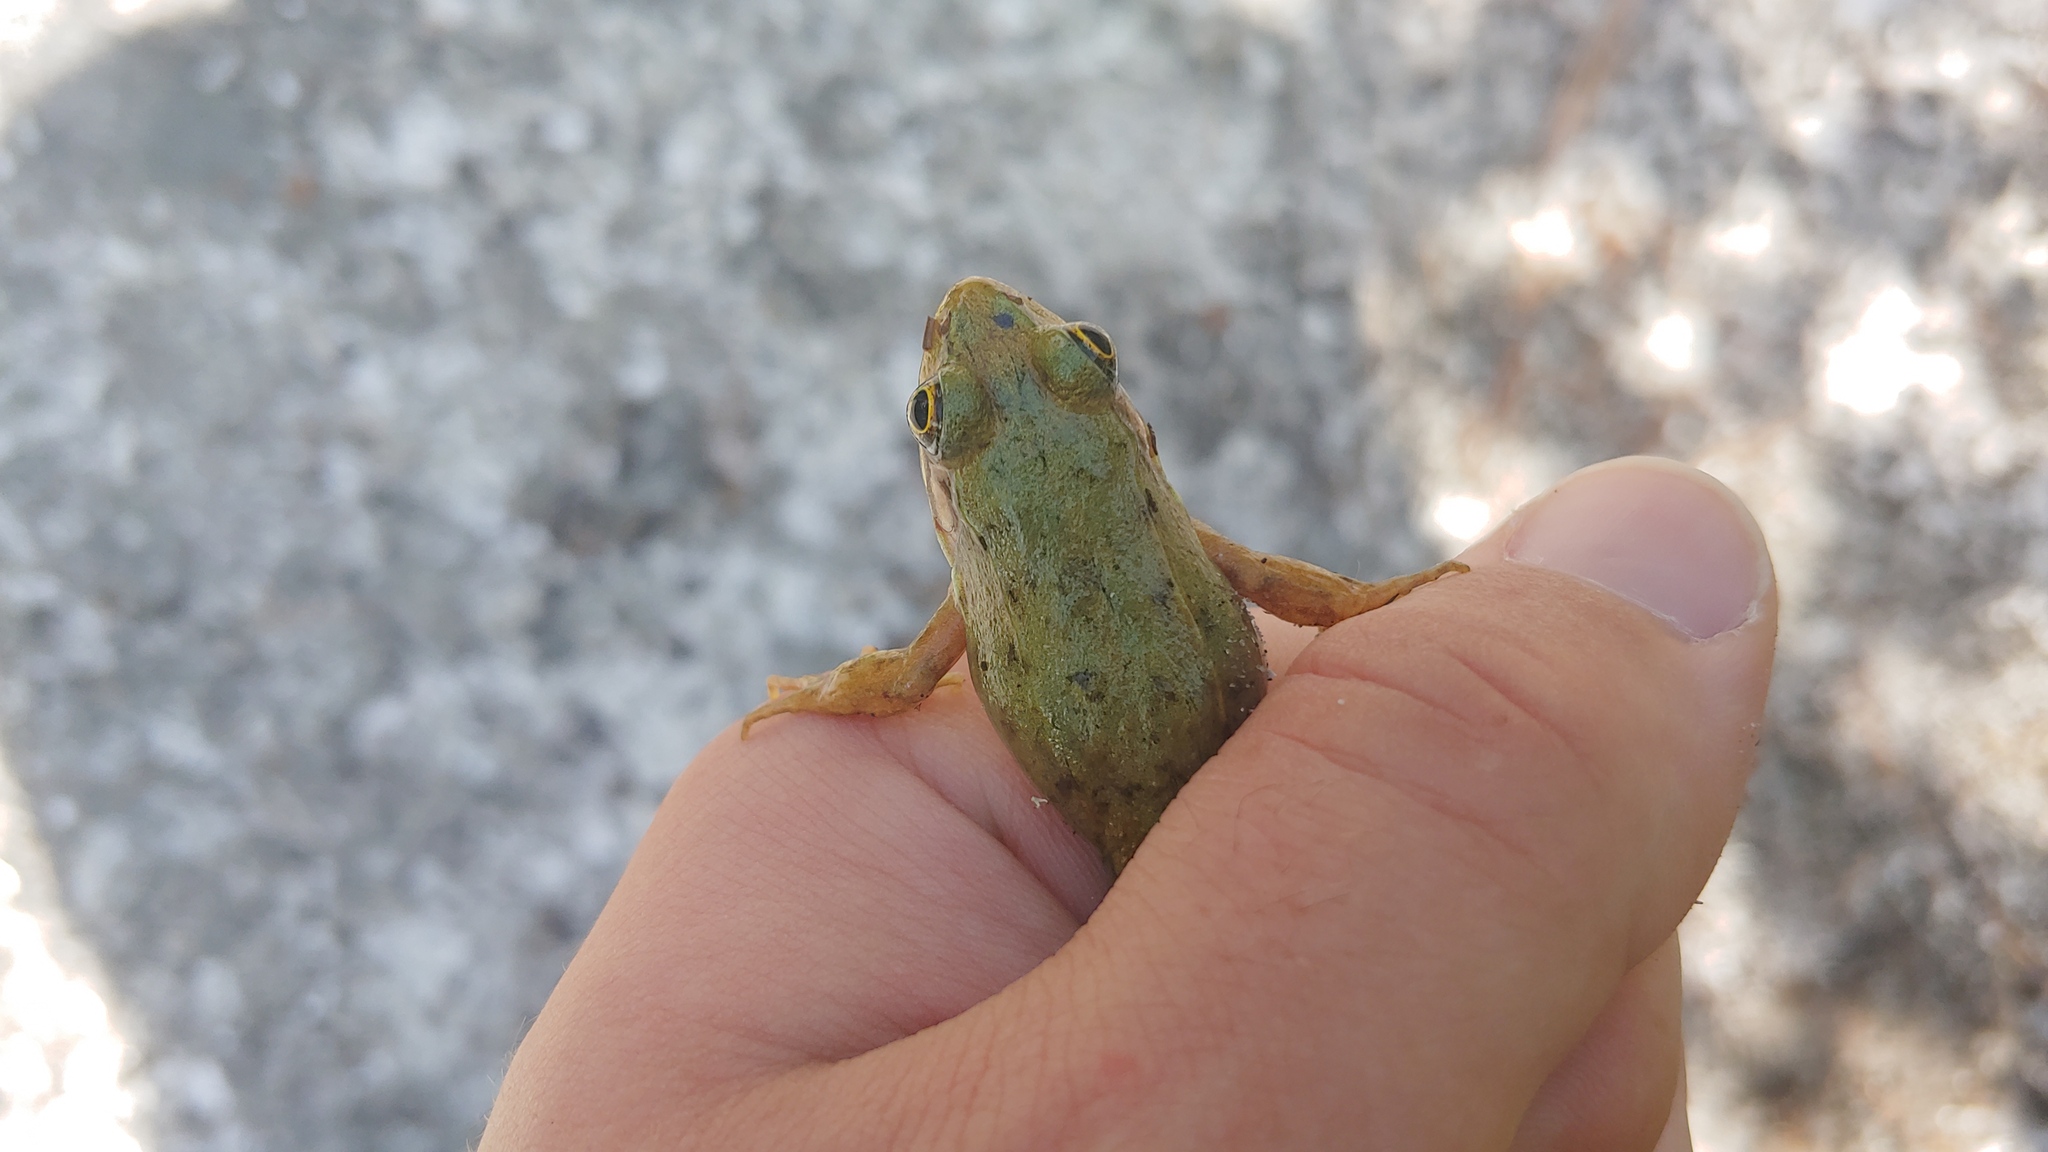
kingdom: Animalia
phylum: Chordata
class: Amphibia
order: Anura
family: Ranidae
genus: Lithobates
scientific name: Lithobates clamitans
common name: Green frog
